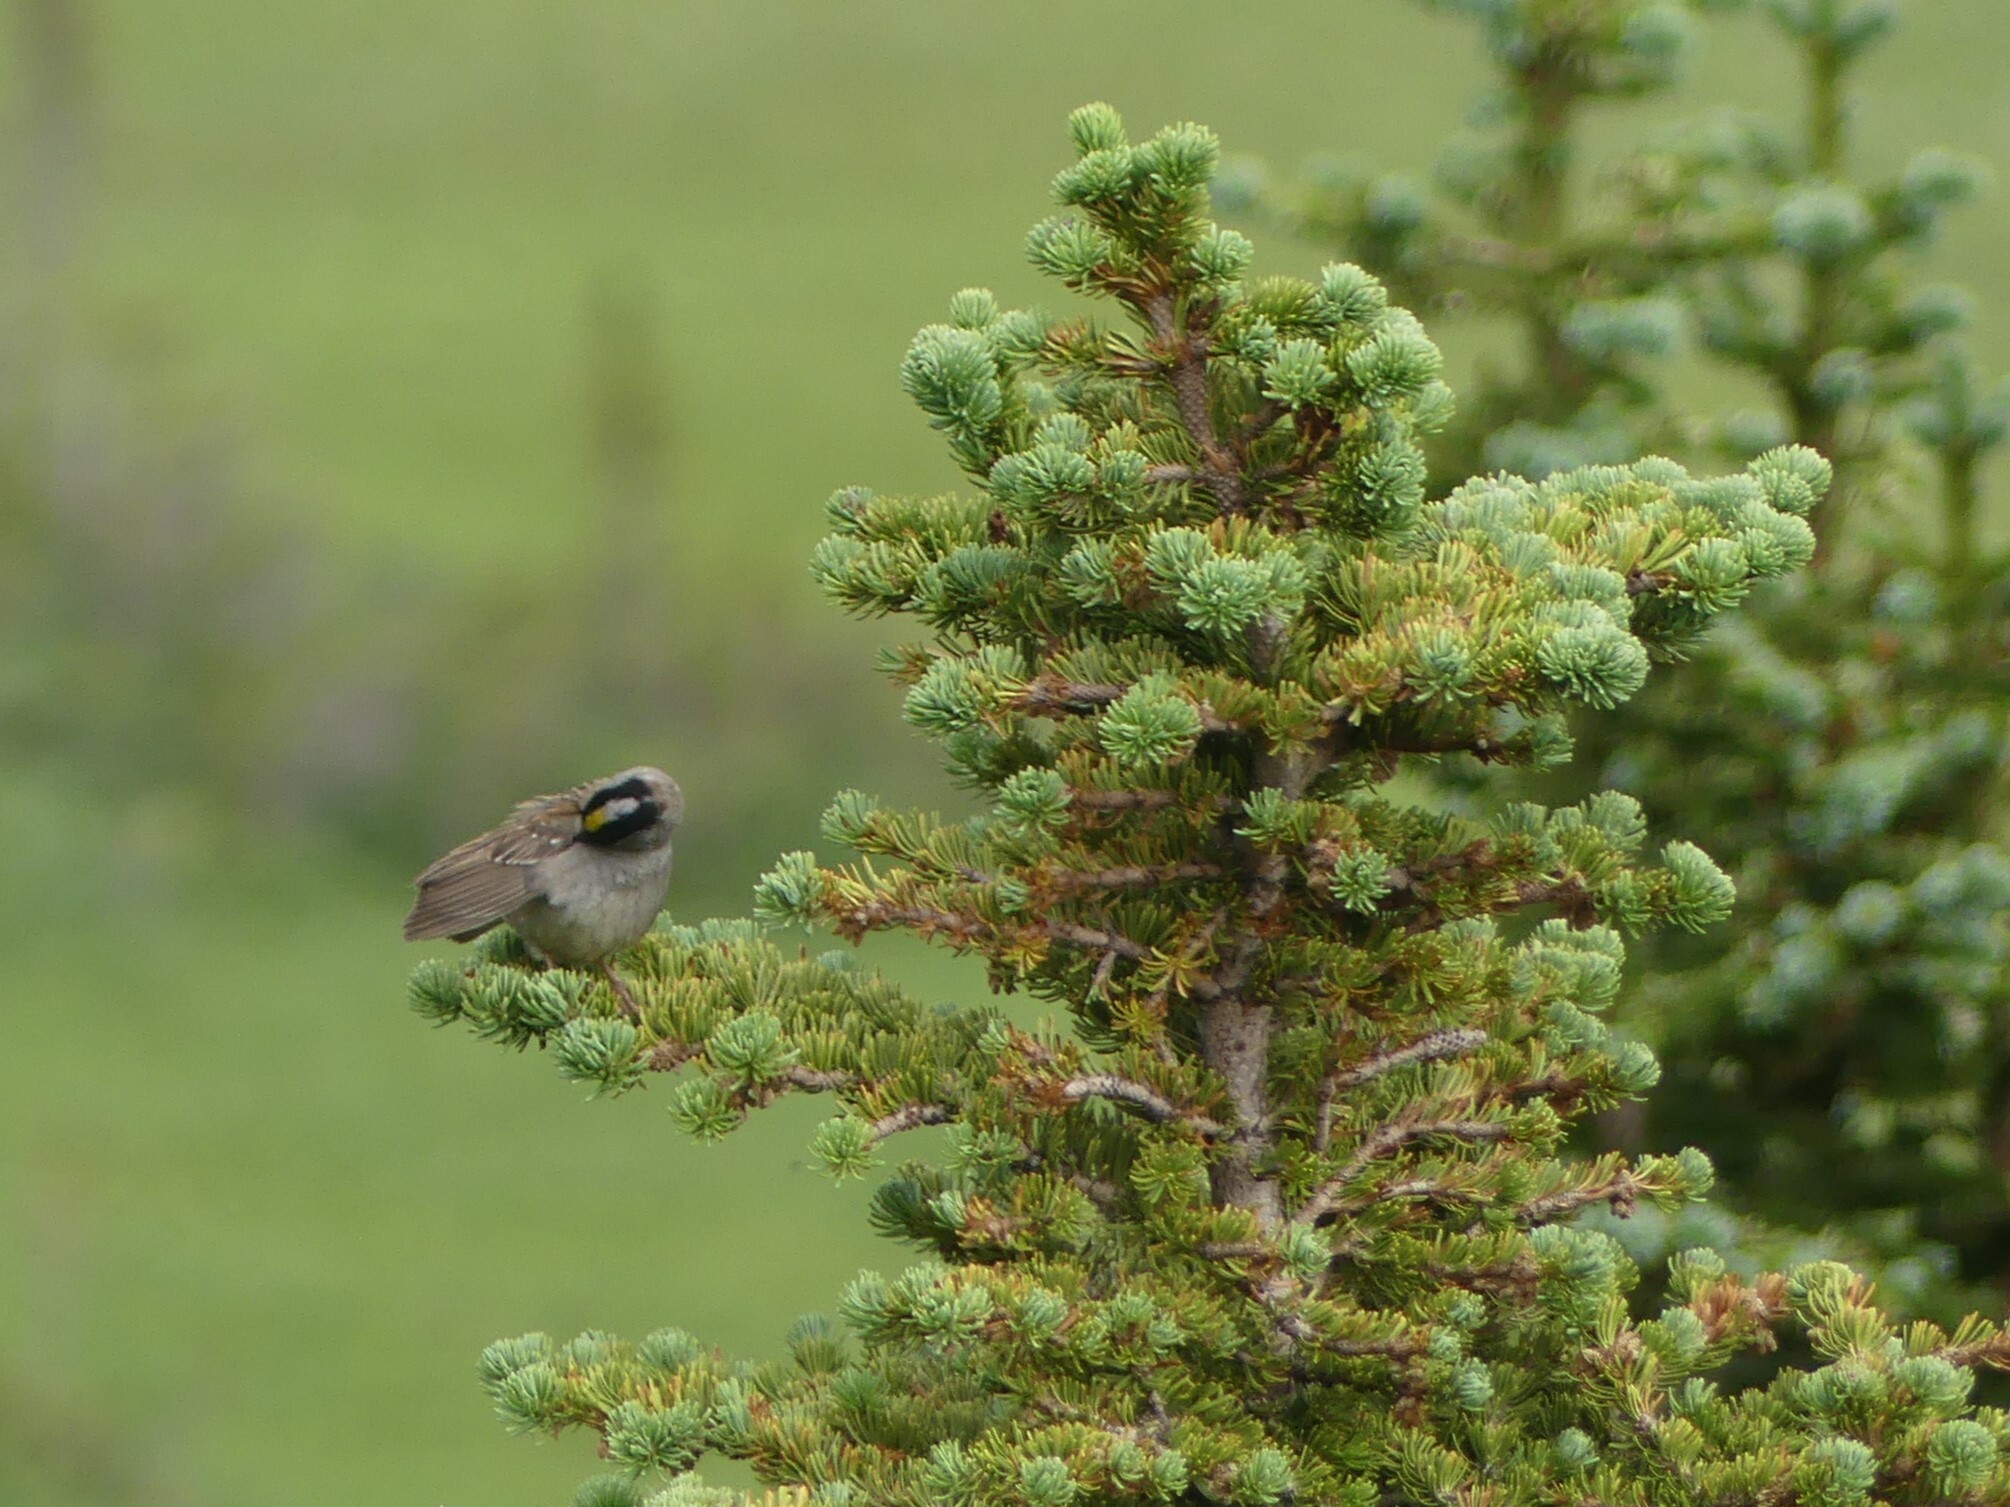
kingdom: Animalia
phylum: Chordata
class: Aves
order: Passeriformes
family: Passerellidae
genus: Zonotrichia
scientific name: Zonotrichia atricapilla
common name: Golden-crowned sparrow
